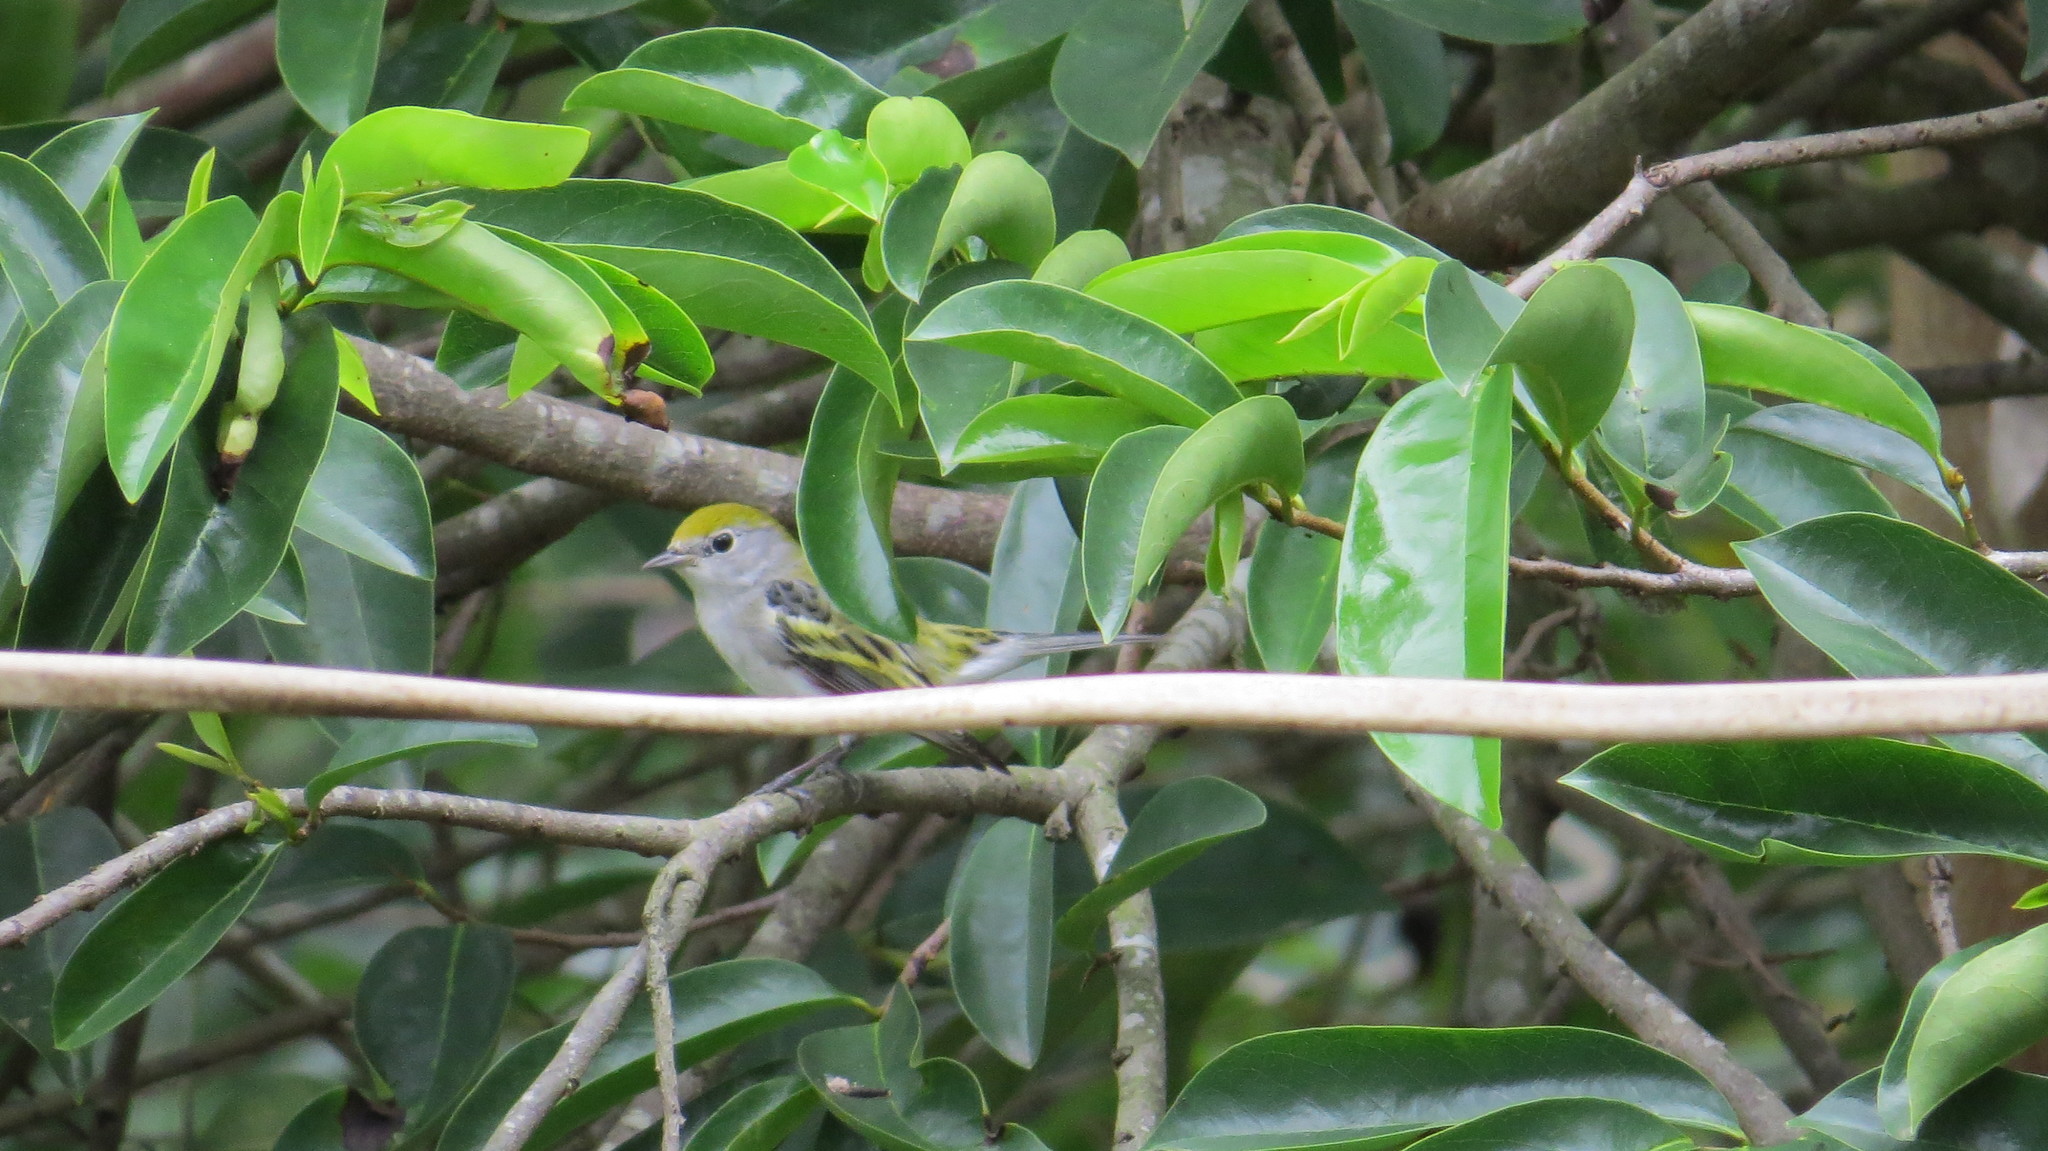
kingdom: Animalia
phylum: Chordata
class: Aves
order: Passeriformes
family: Parulidae
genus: Setophaga
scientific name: Setophaga pensylvanica
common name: Chestnut-sided warbler
